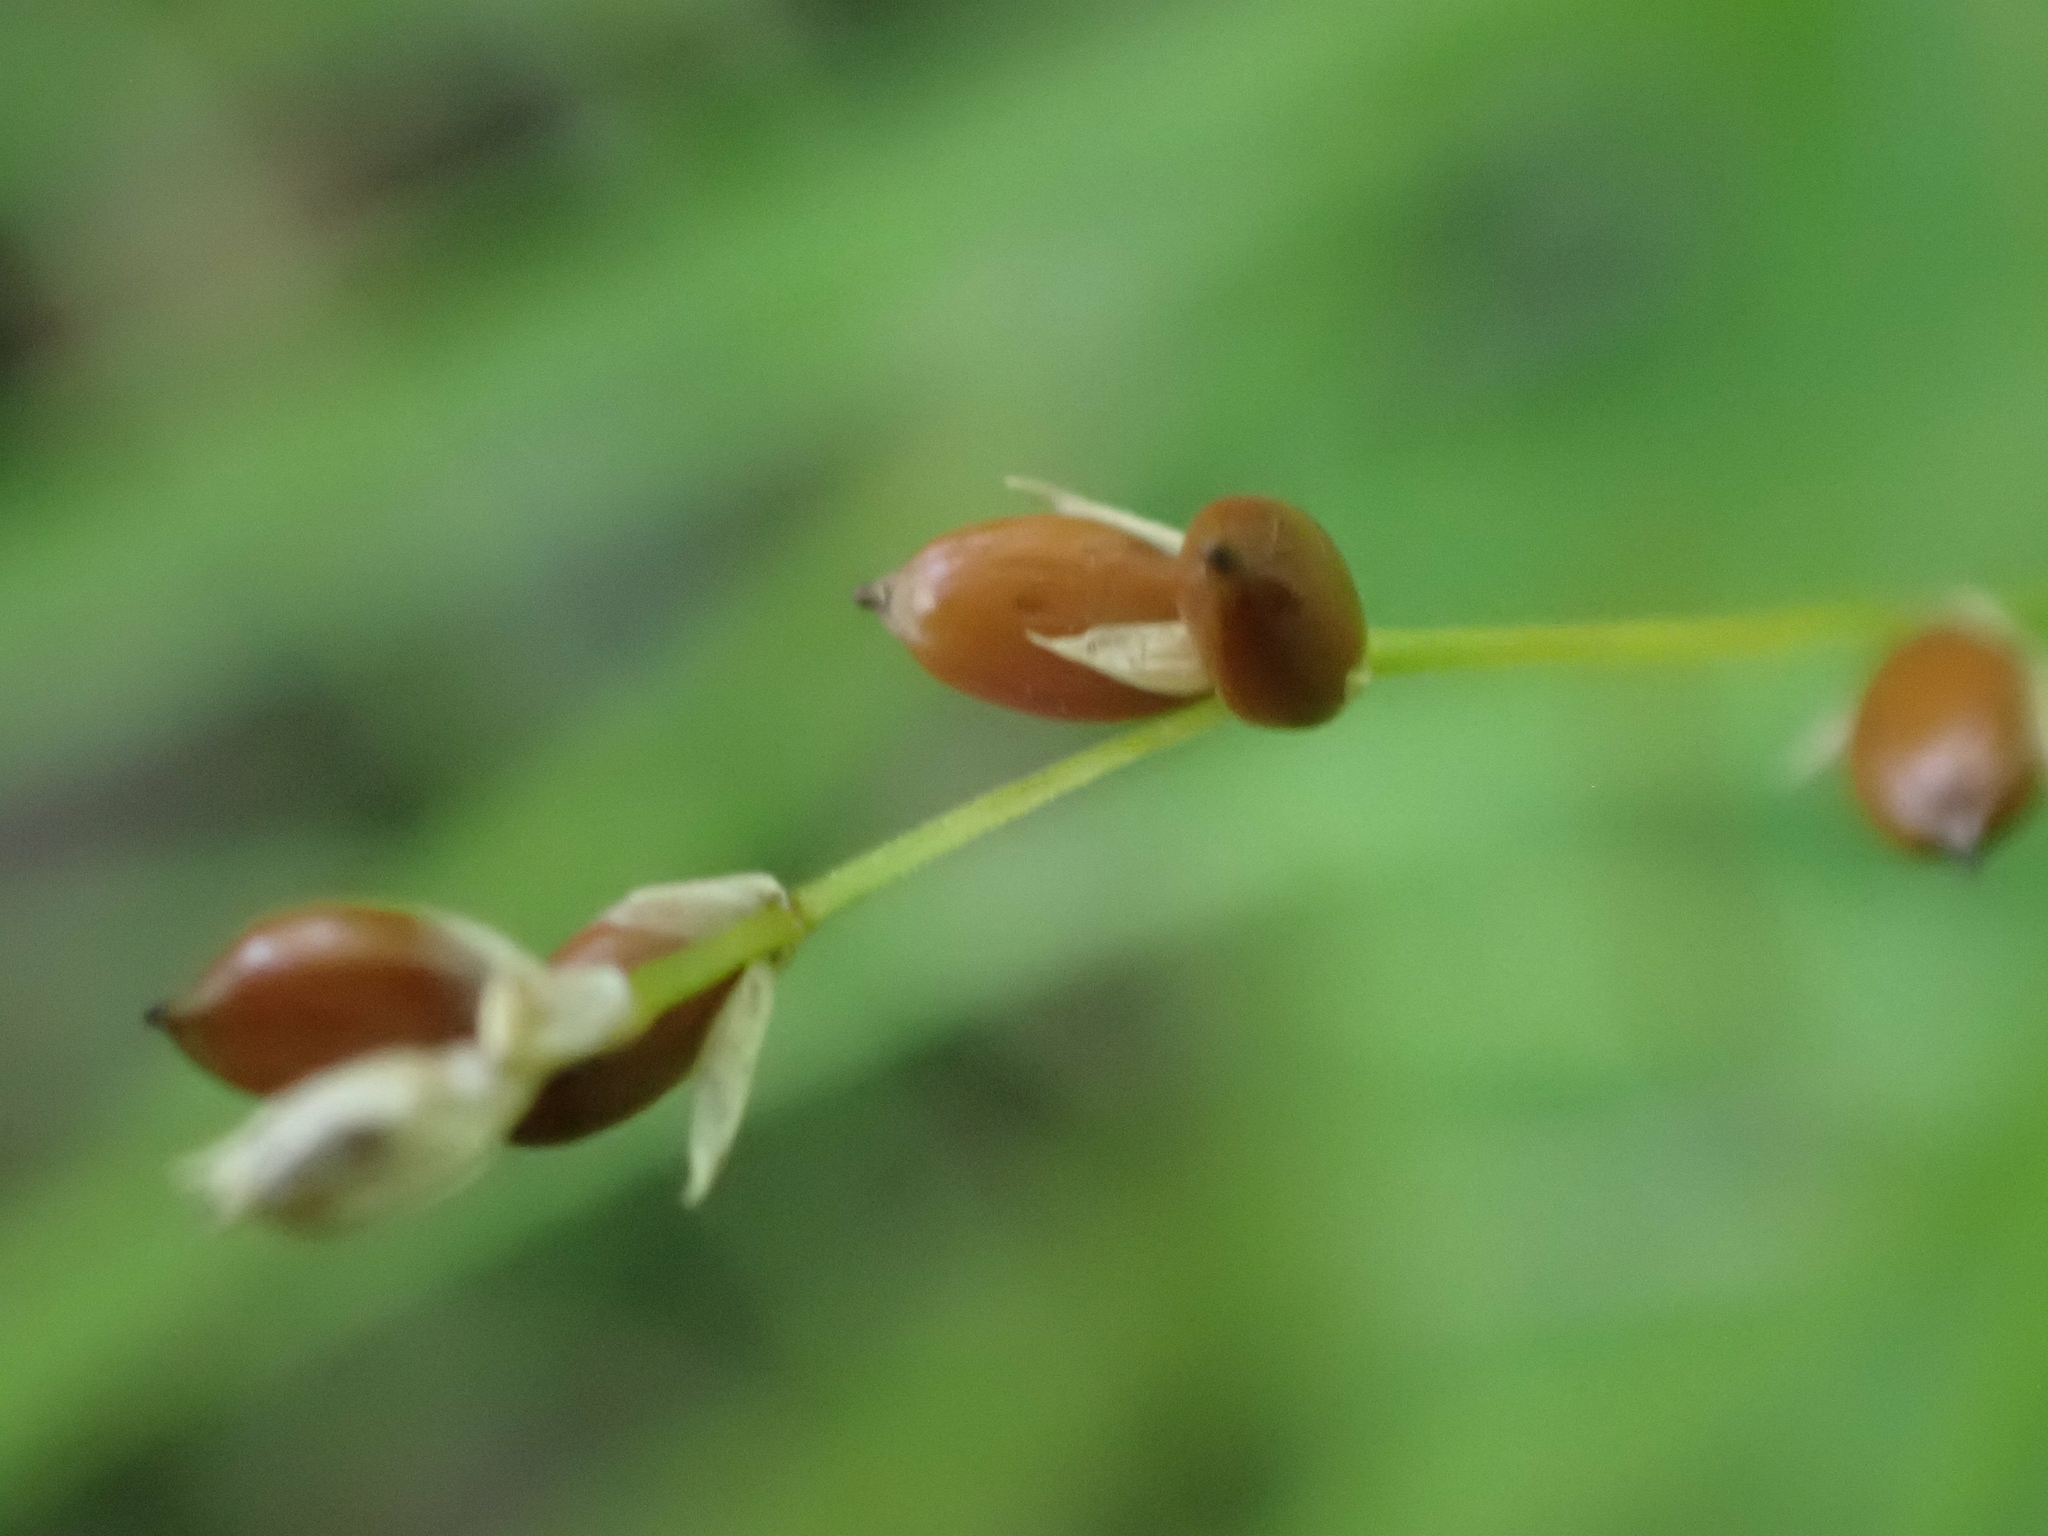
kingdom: Plantae
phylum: Tracheophyta
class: Liliopsida
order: Poales
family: Cyperaceae
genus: Carex
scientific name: Carex disperma
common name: Short-leaved sedge
